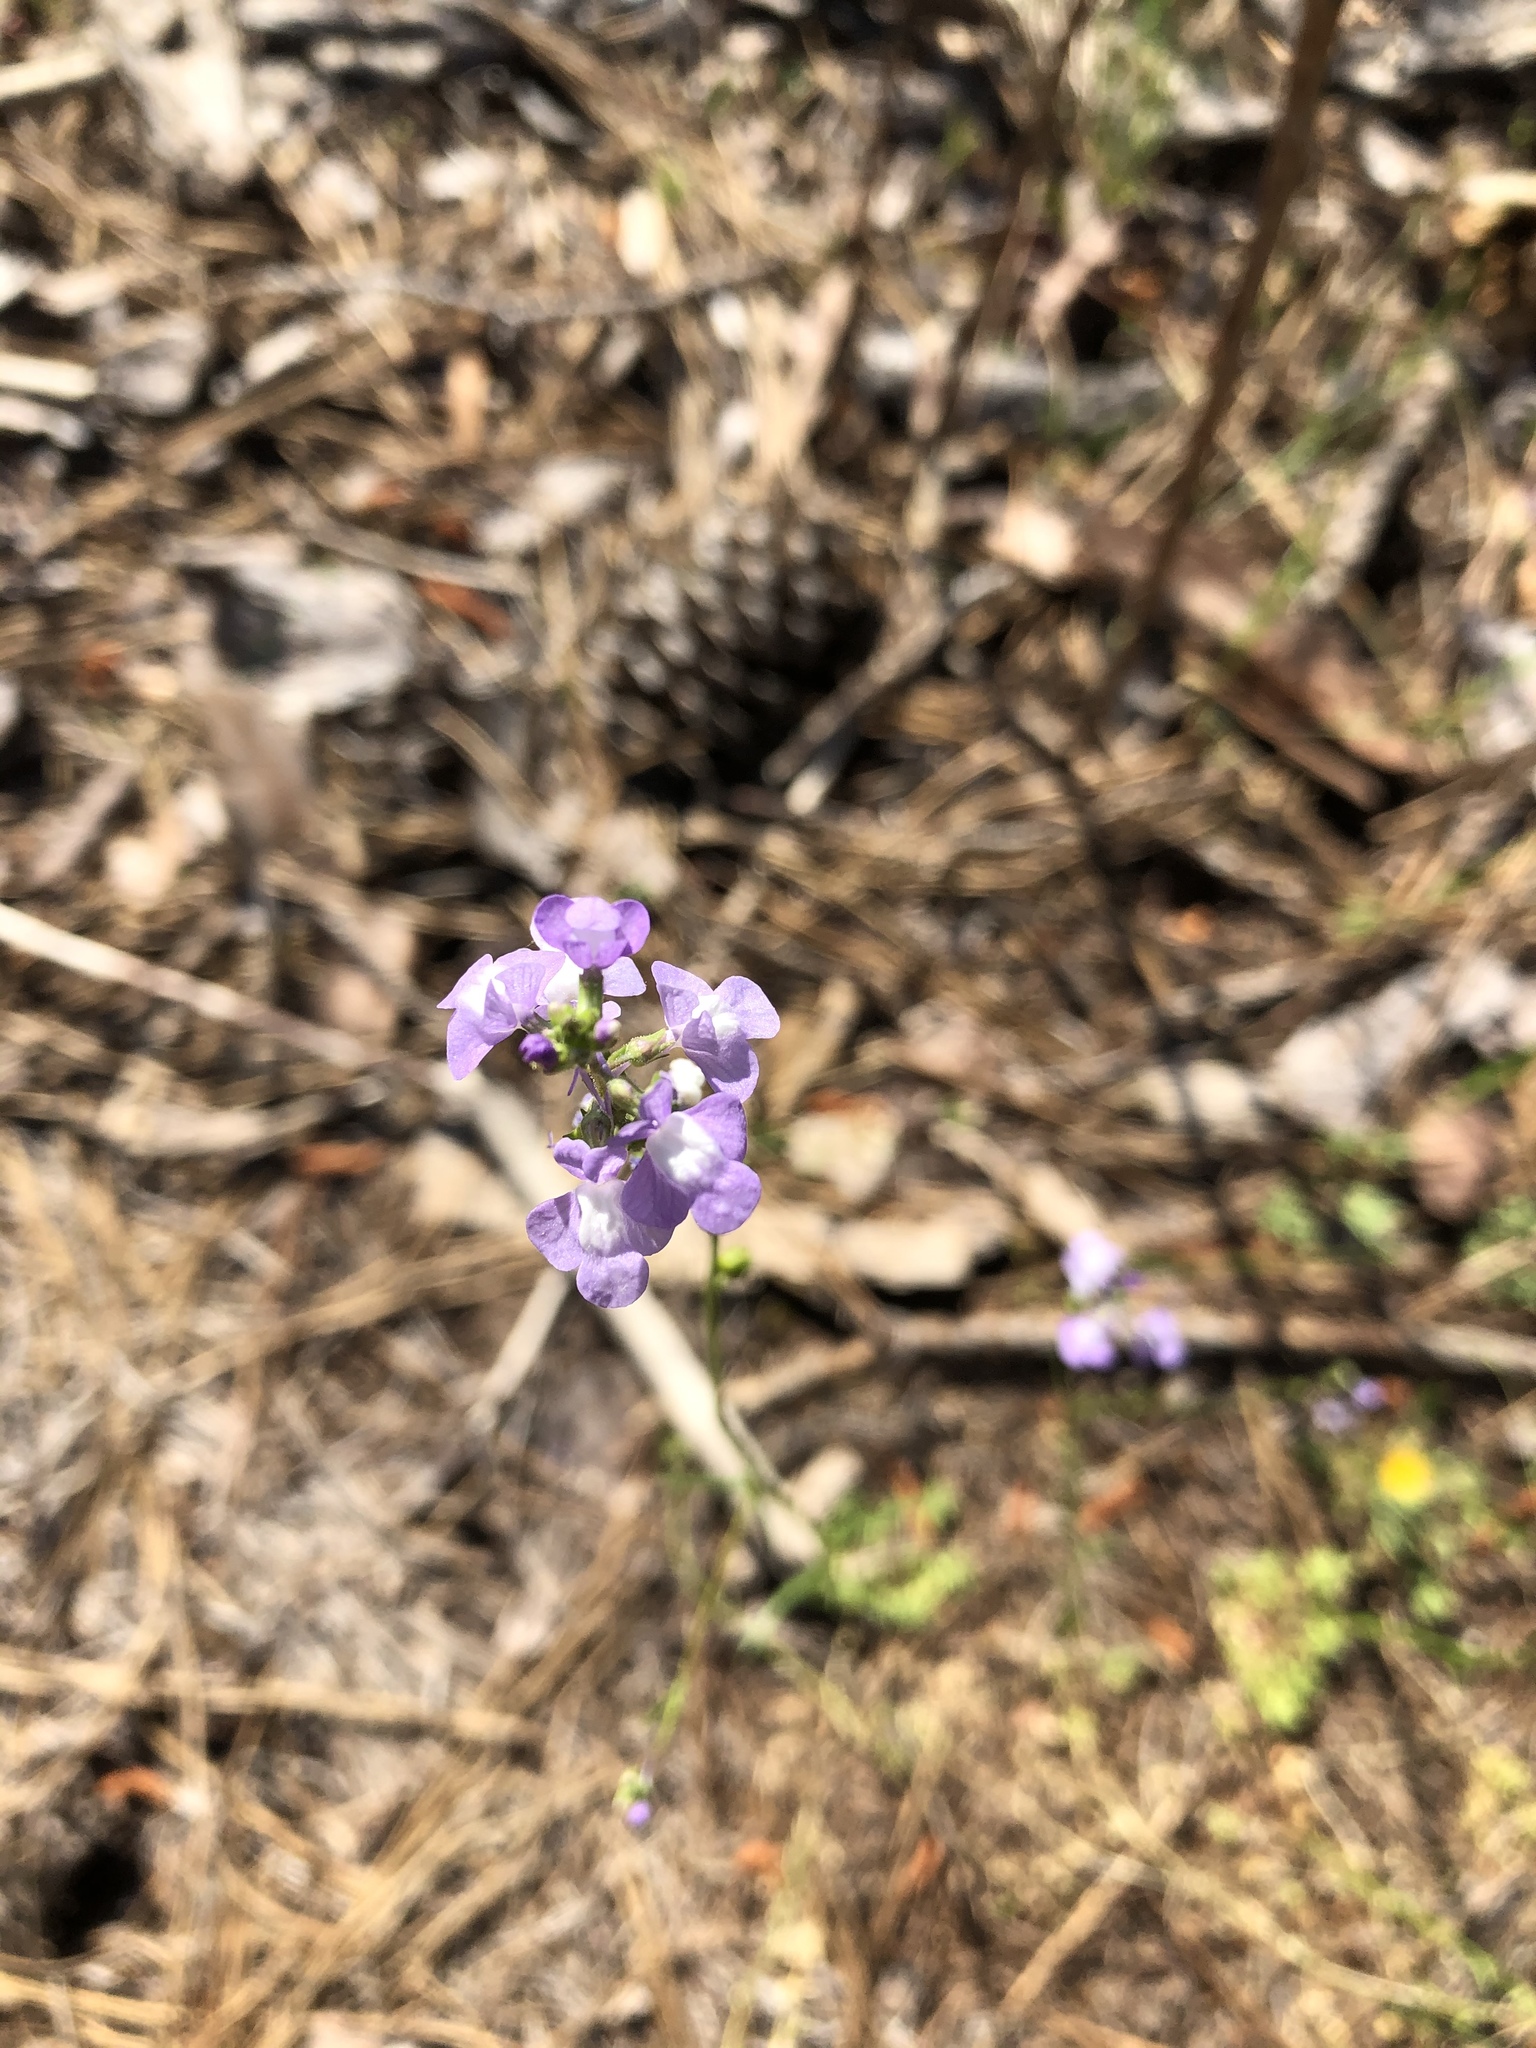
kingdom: Plantae
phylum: Tracheophyta
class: Magnoliopsida
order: Lamiales
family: Plantaginaceae
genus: Nuttallanthus
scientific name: Nuttallanthus canadensis
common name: Blue toadflax
